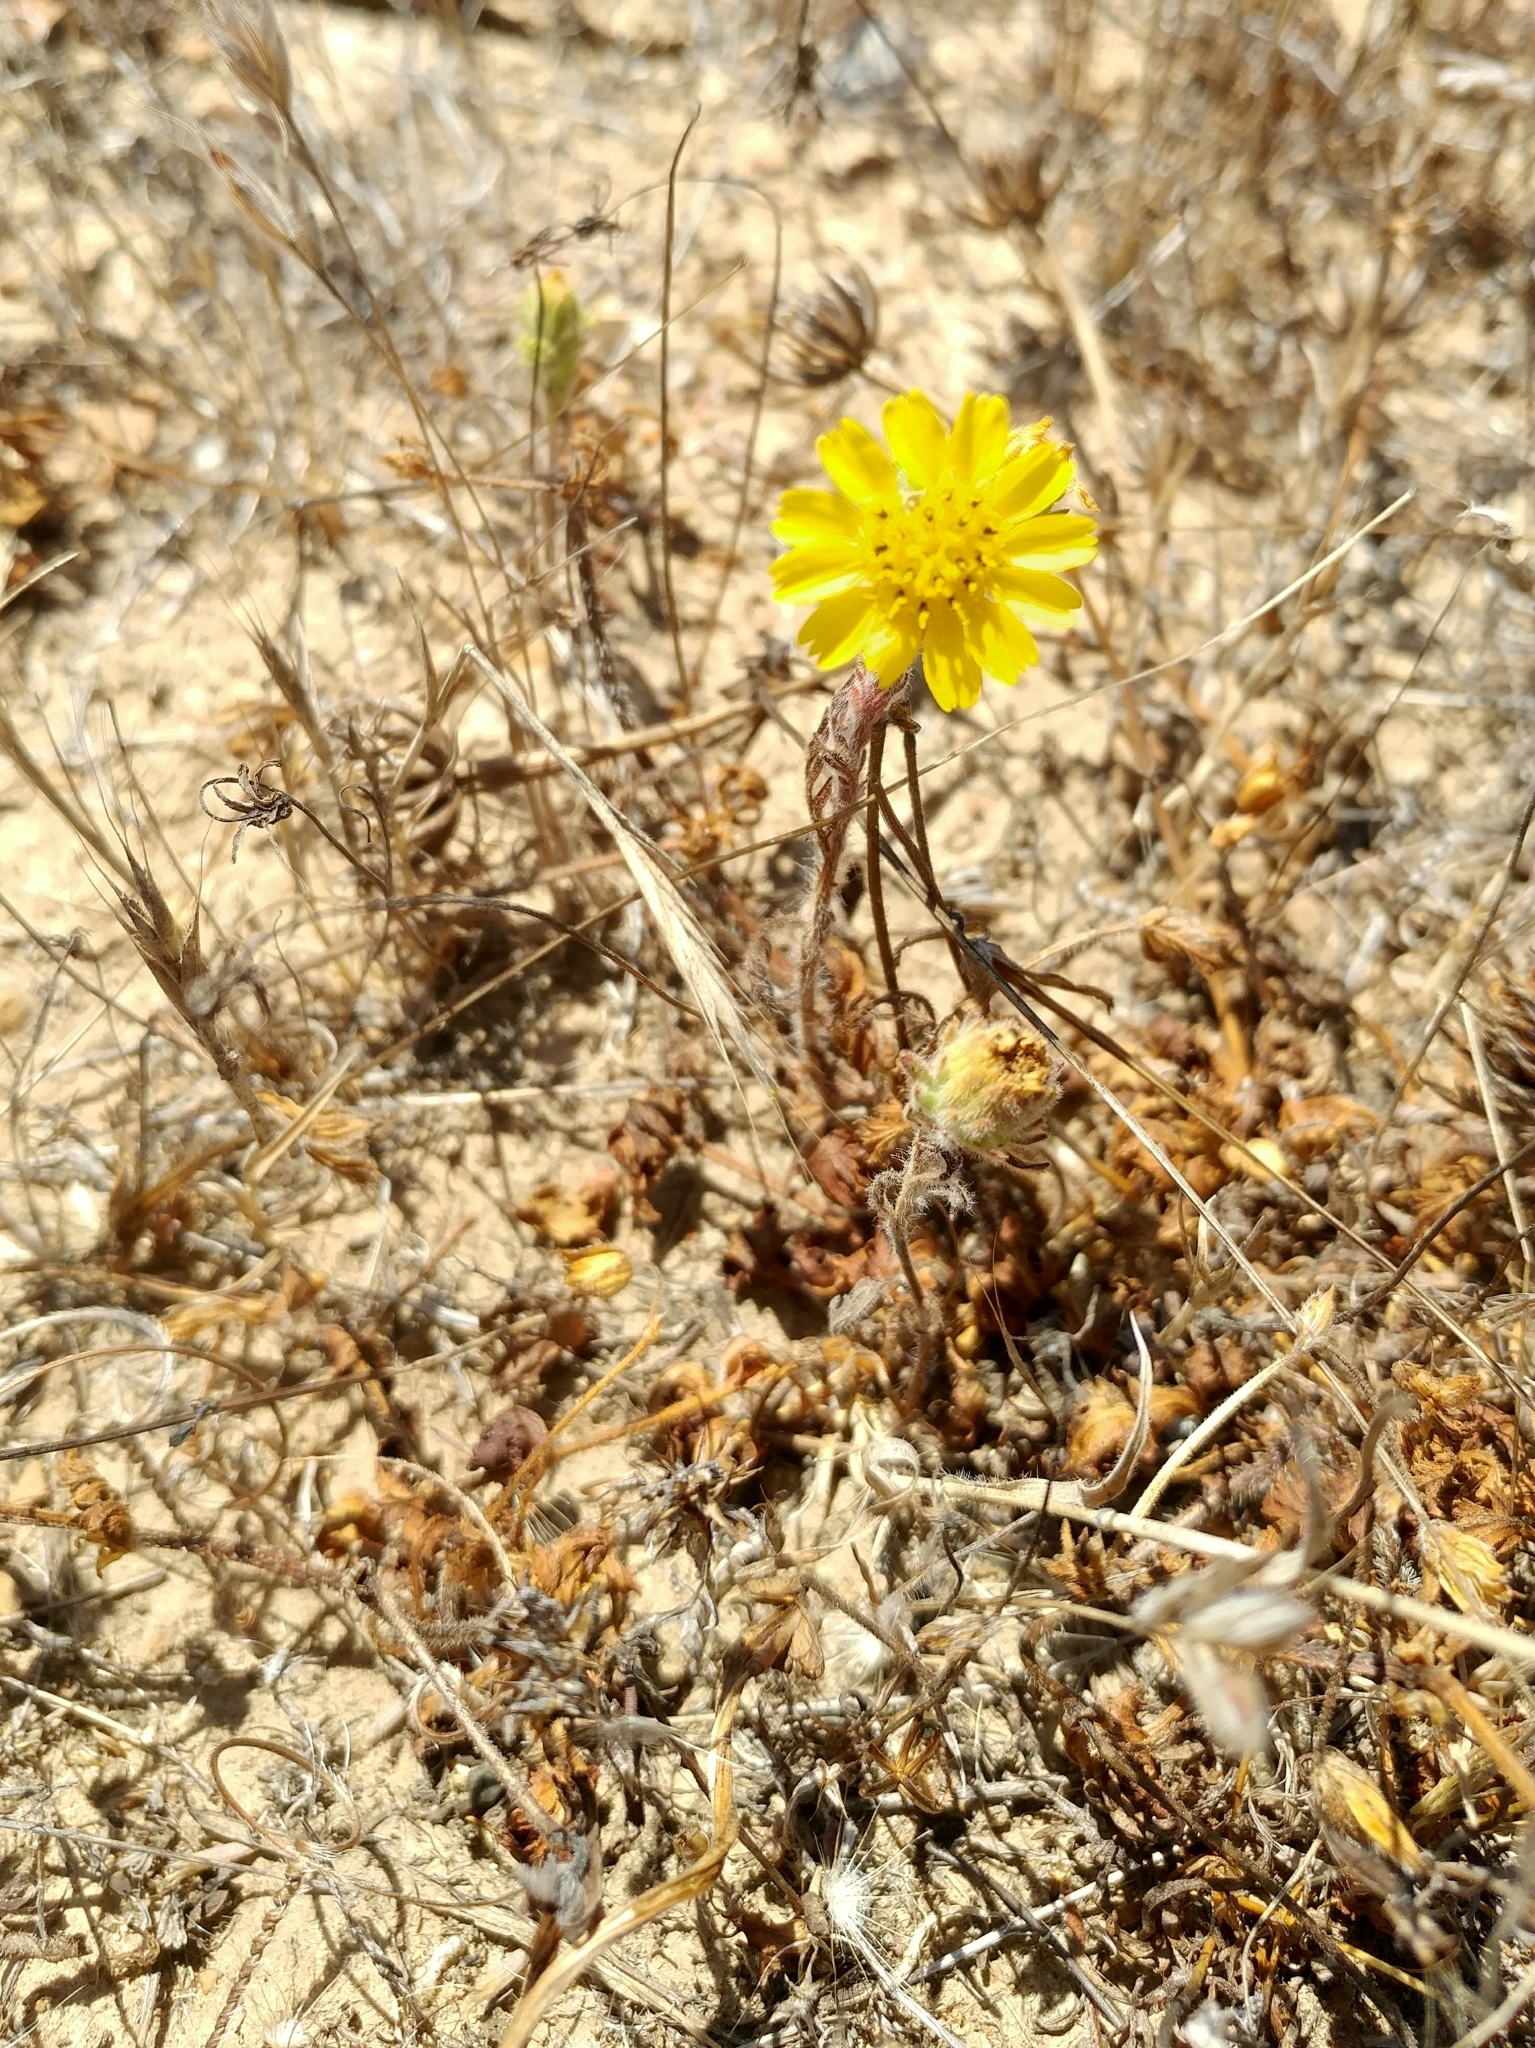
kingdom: Plantae
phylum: Tracheophyta
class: Magnoliopsida
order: Asterales
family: Asteraceae
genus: Deinandra
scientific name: Deinandra increscens
